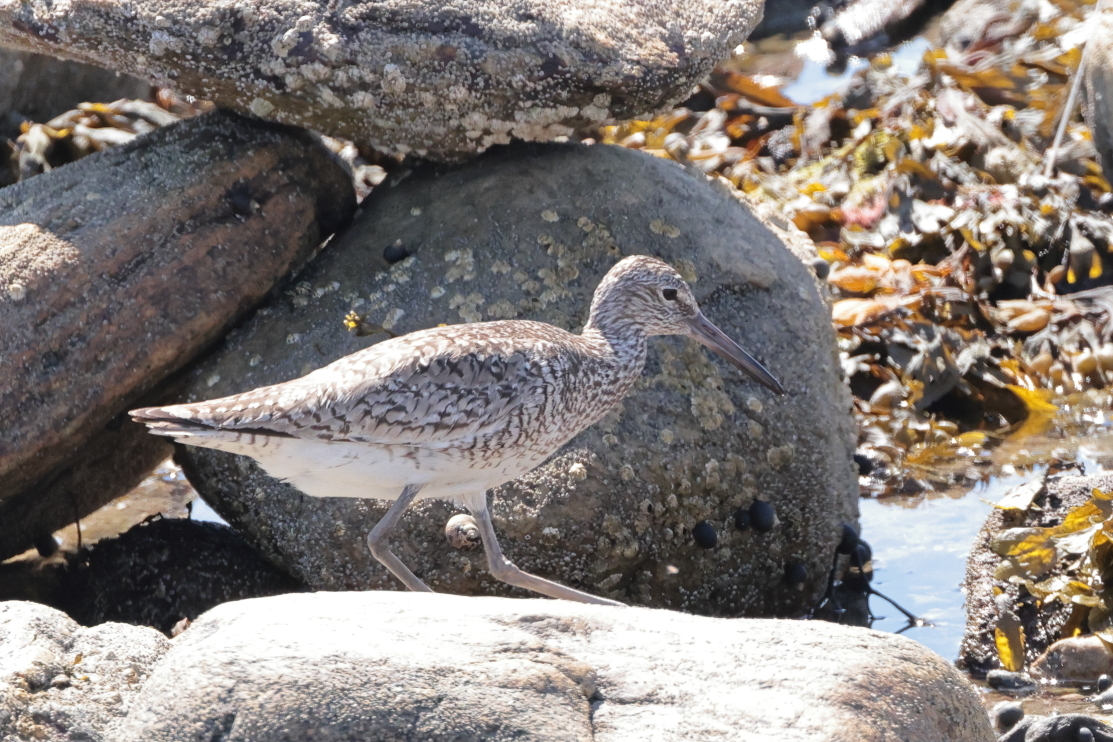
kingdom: Animalia
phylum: Chordata
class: Aves
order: Charadriiformes
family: Scolopacidae
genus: Tringa
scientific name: Tringa semipalmata
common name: Willet
